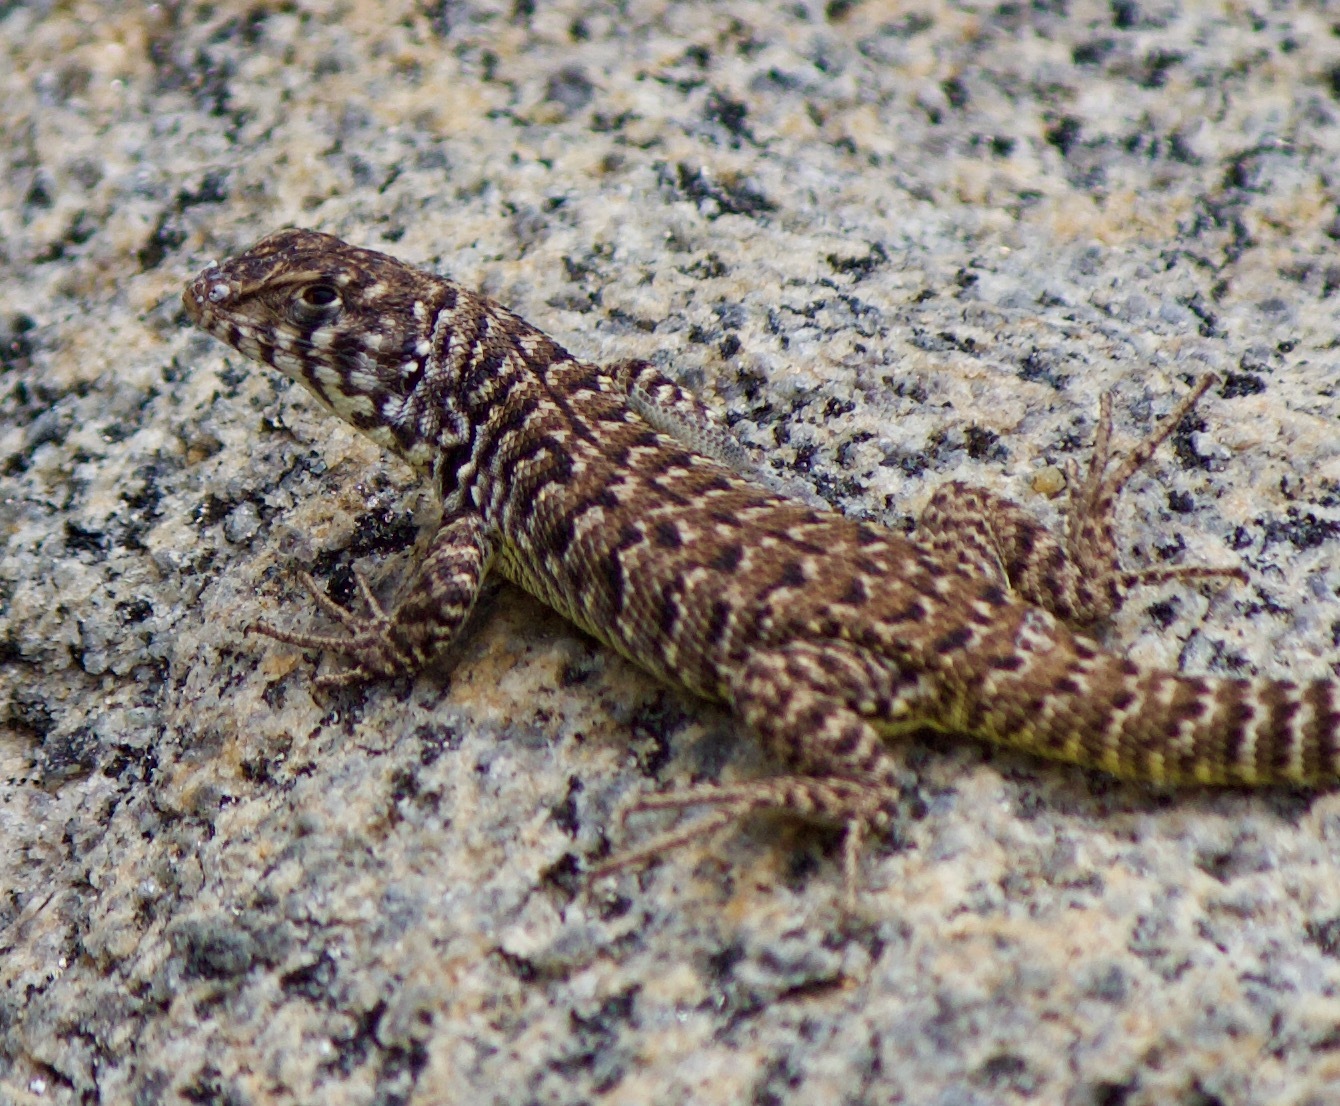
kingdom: Animalia
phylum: Chordata
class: Squamata
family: Liolaemidae
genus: Liolaemus
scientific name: Liolaemus zapallarensis
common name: Zapallaren tree iguana
